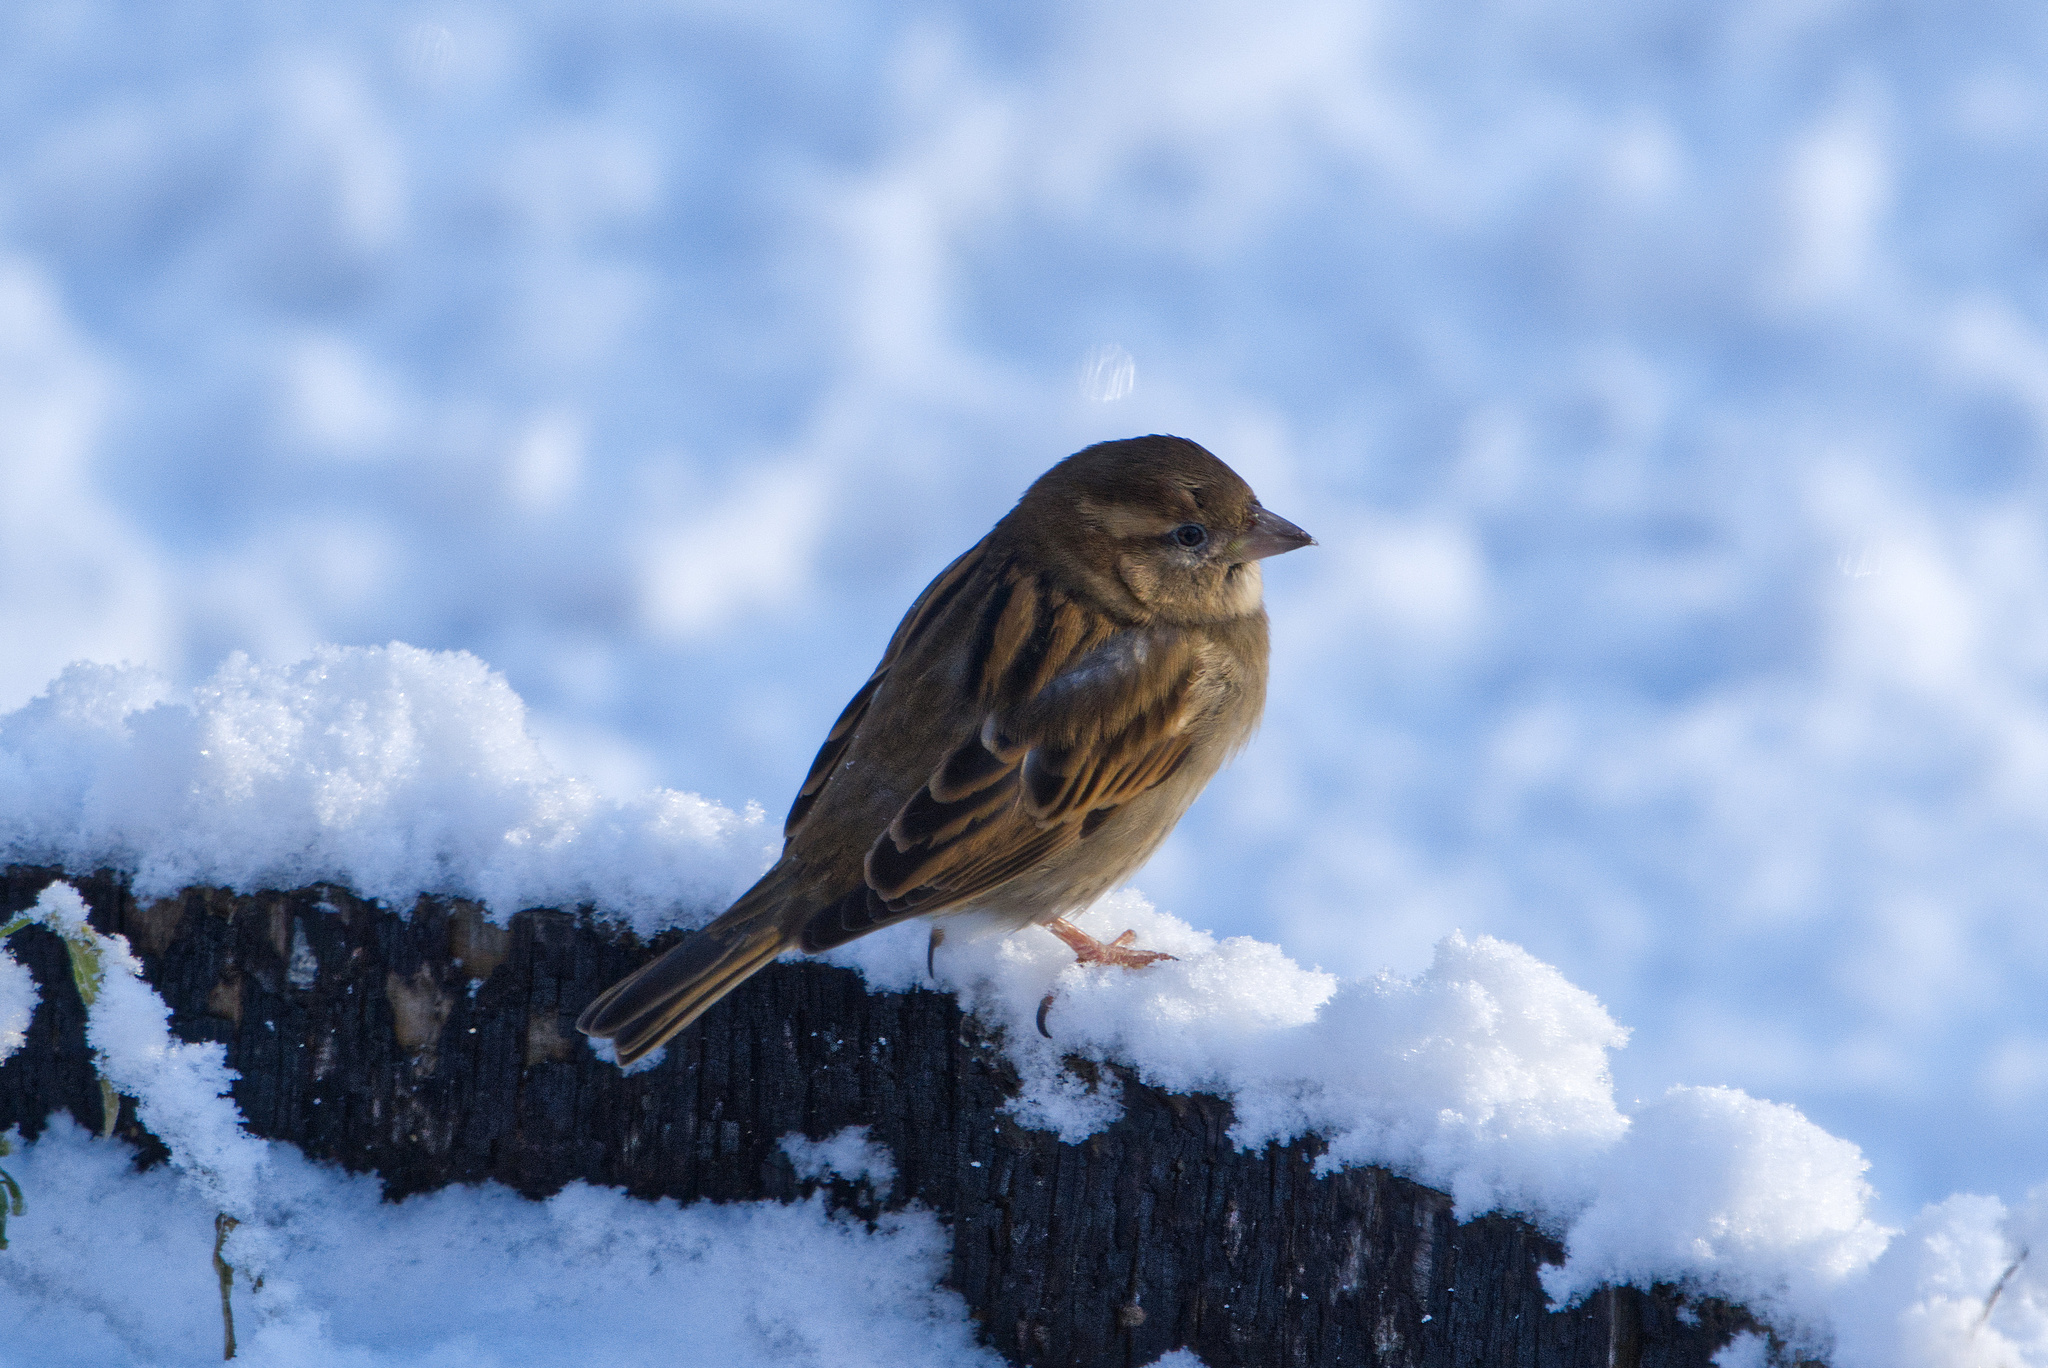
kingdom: Animalia
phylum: Chordata
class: Aves
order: Passeriformes
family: Passeridae
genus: Passer
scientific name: Passer domesticus
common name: House sparrow
